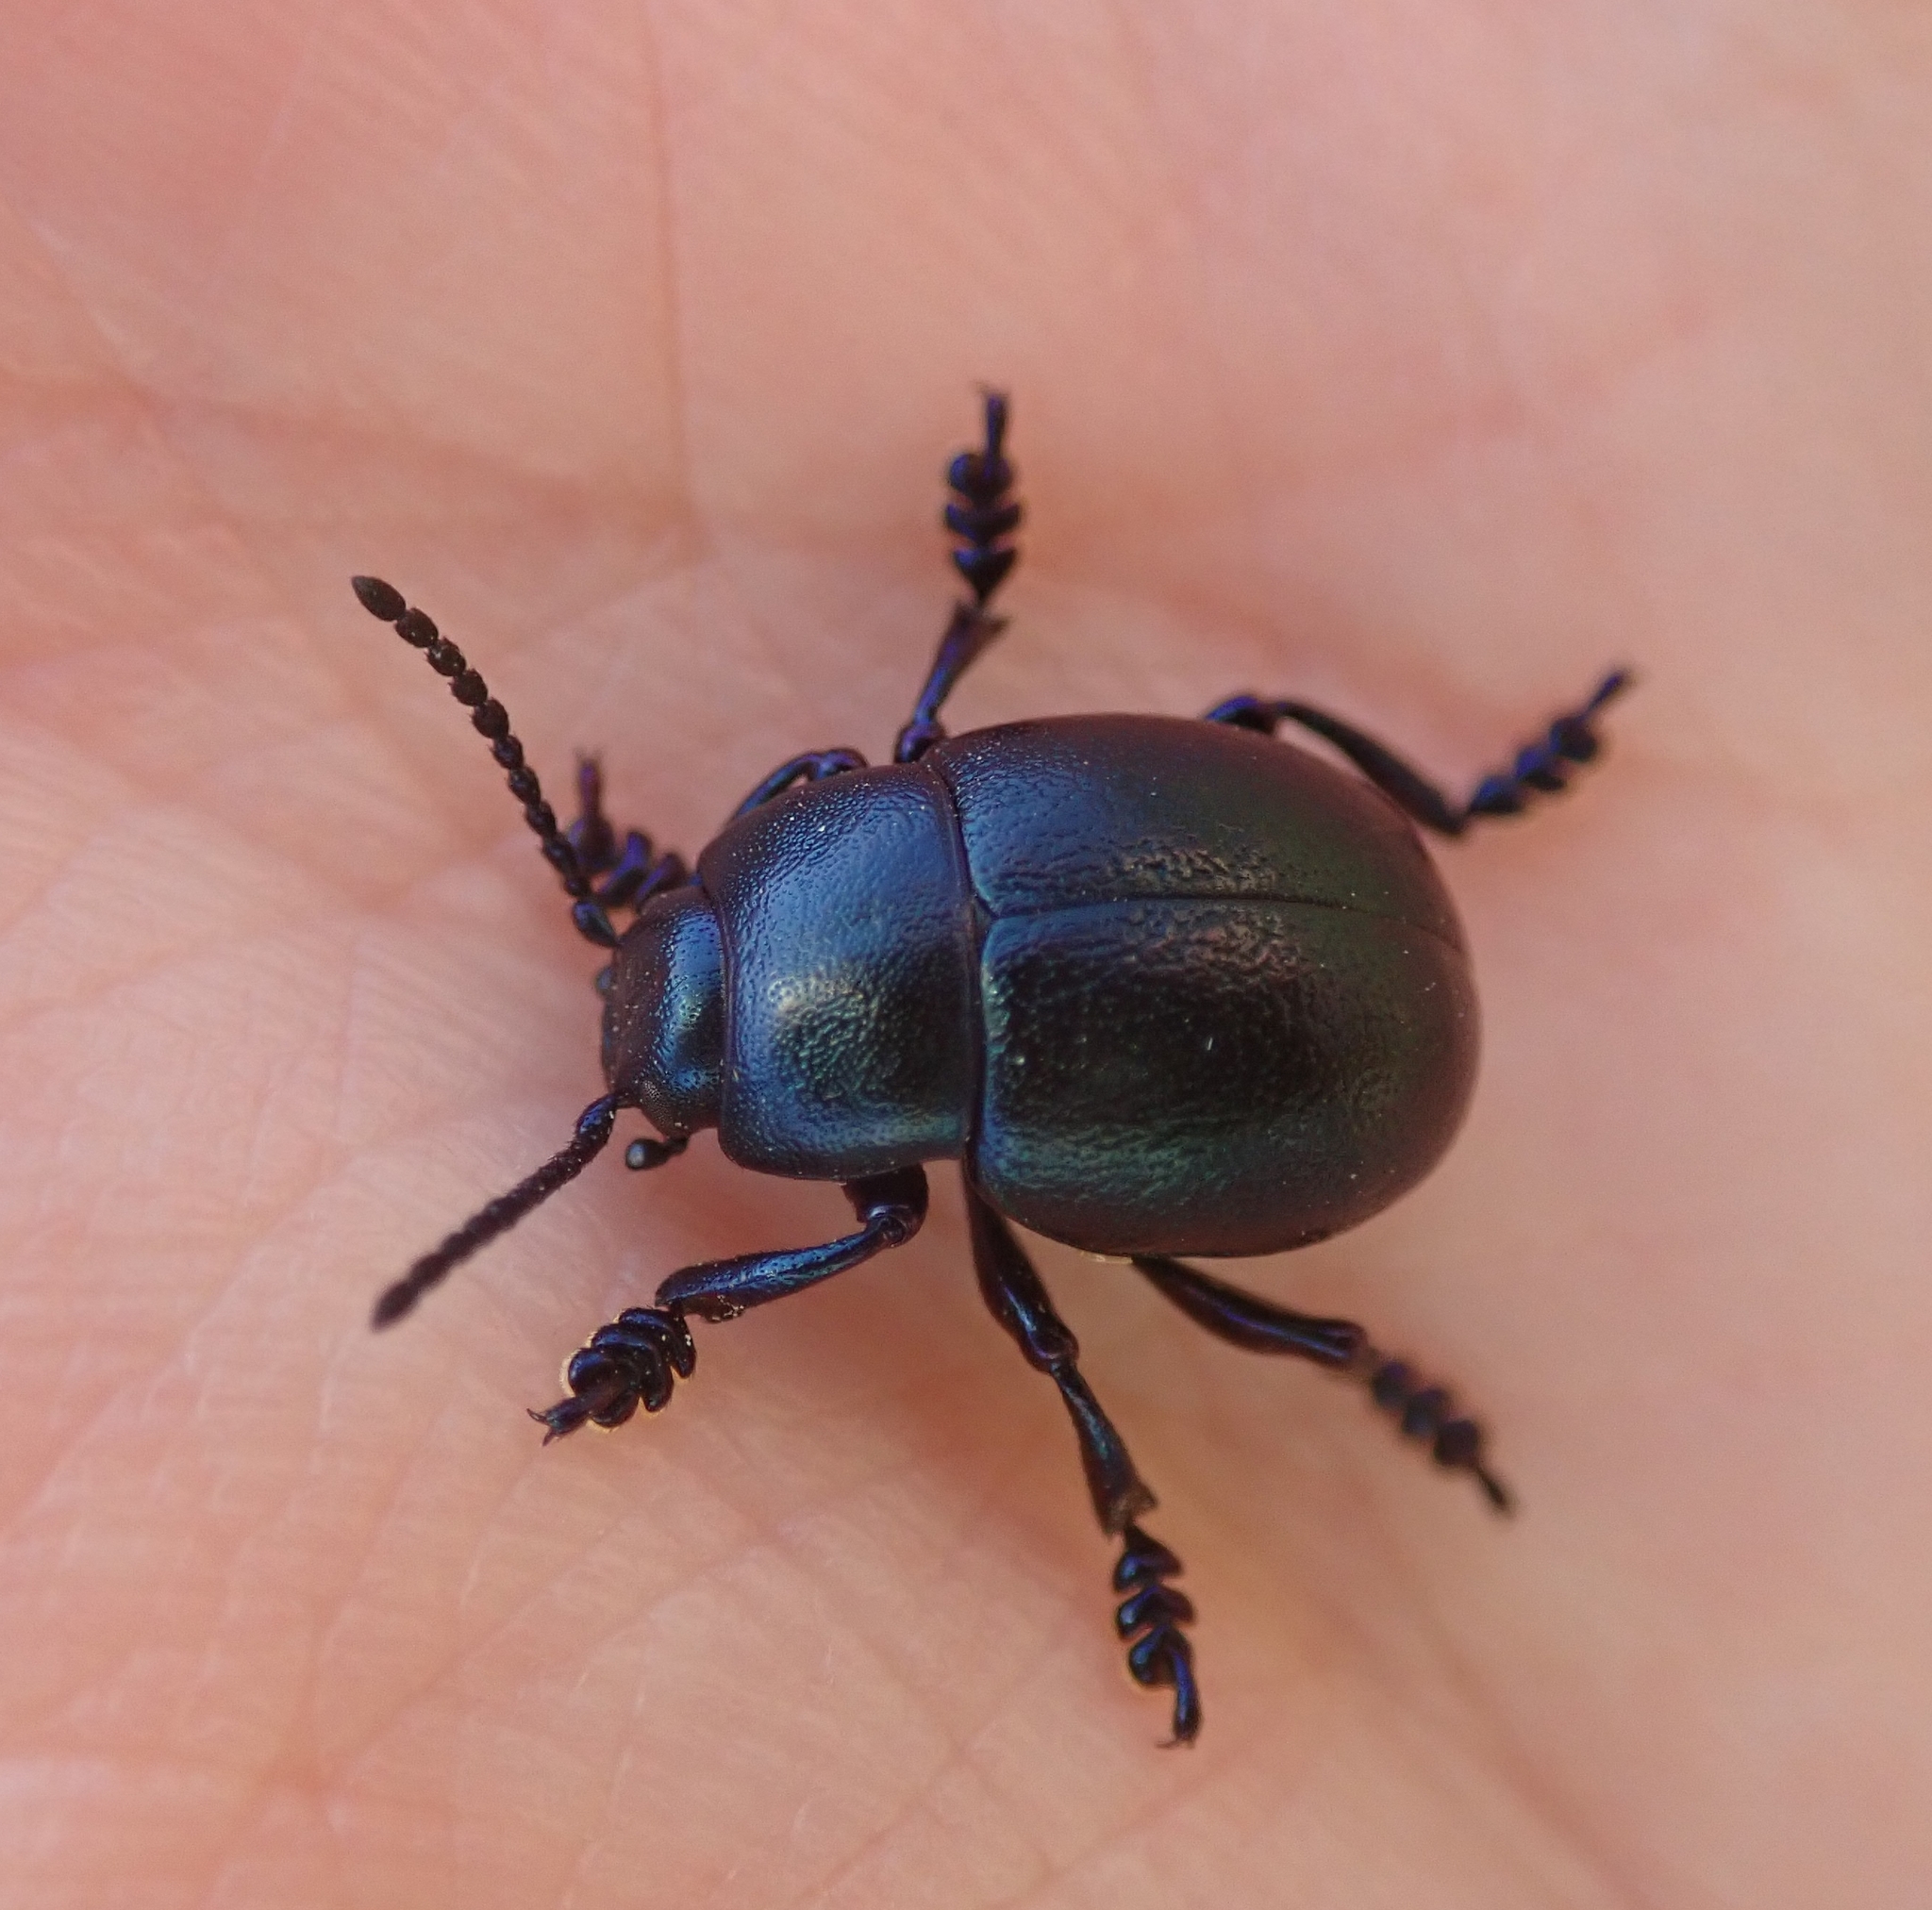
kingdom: Animalia
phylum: Arthropoda
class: Insecta
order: Coleoptera
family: Chrysomelidae
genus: Timarcha
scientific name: Timarcha goettingensis
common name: Small bloody-nosed beetle
